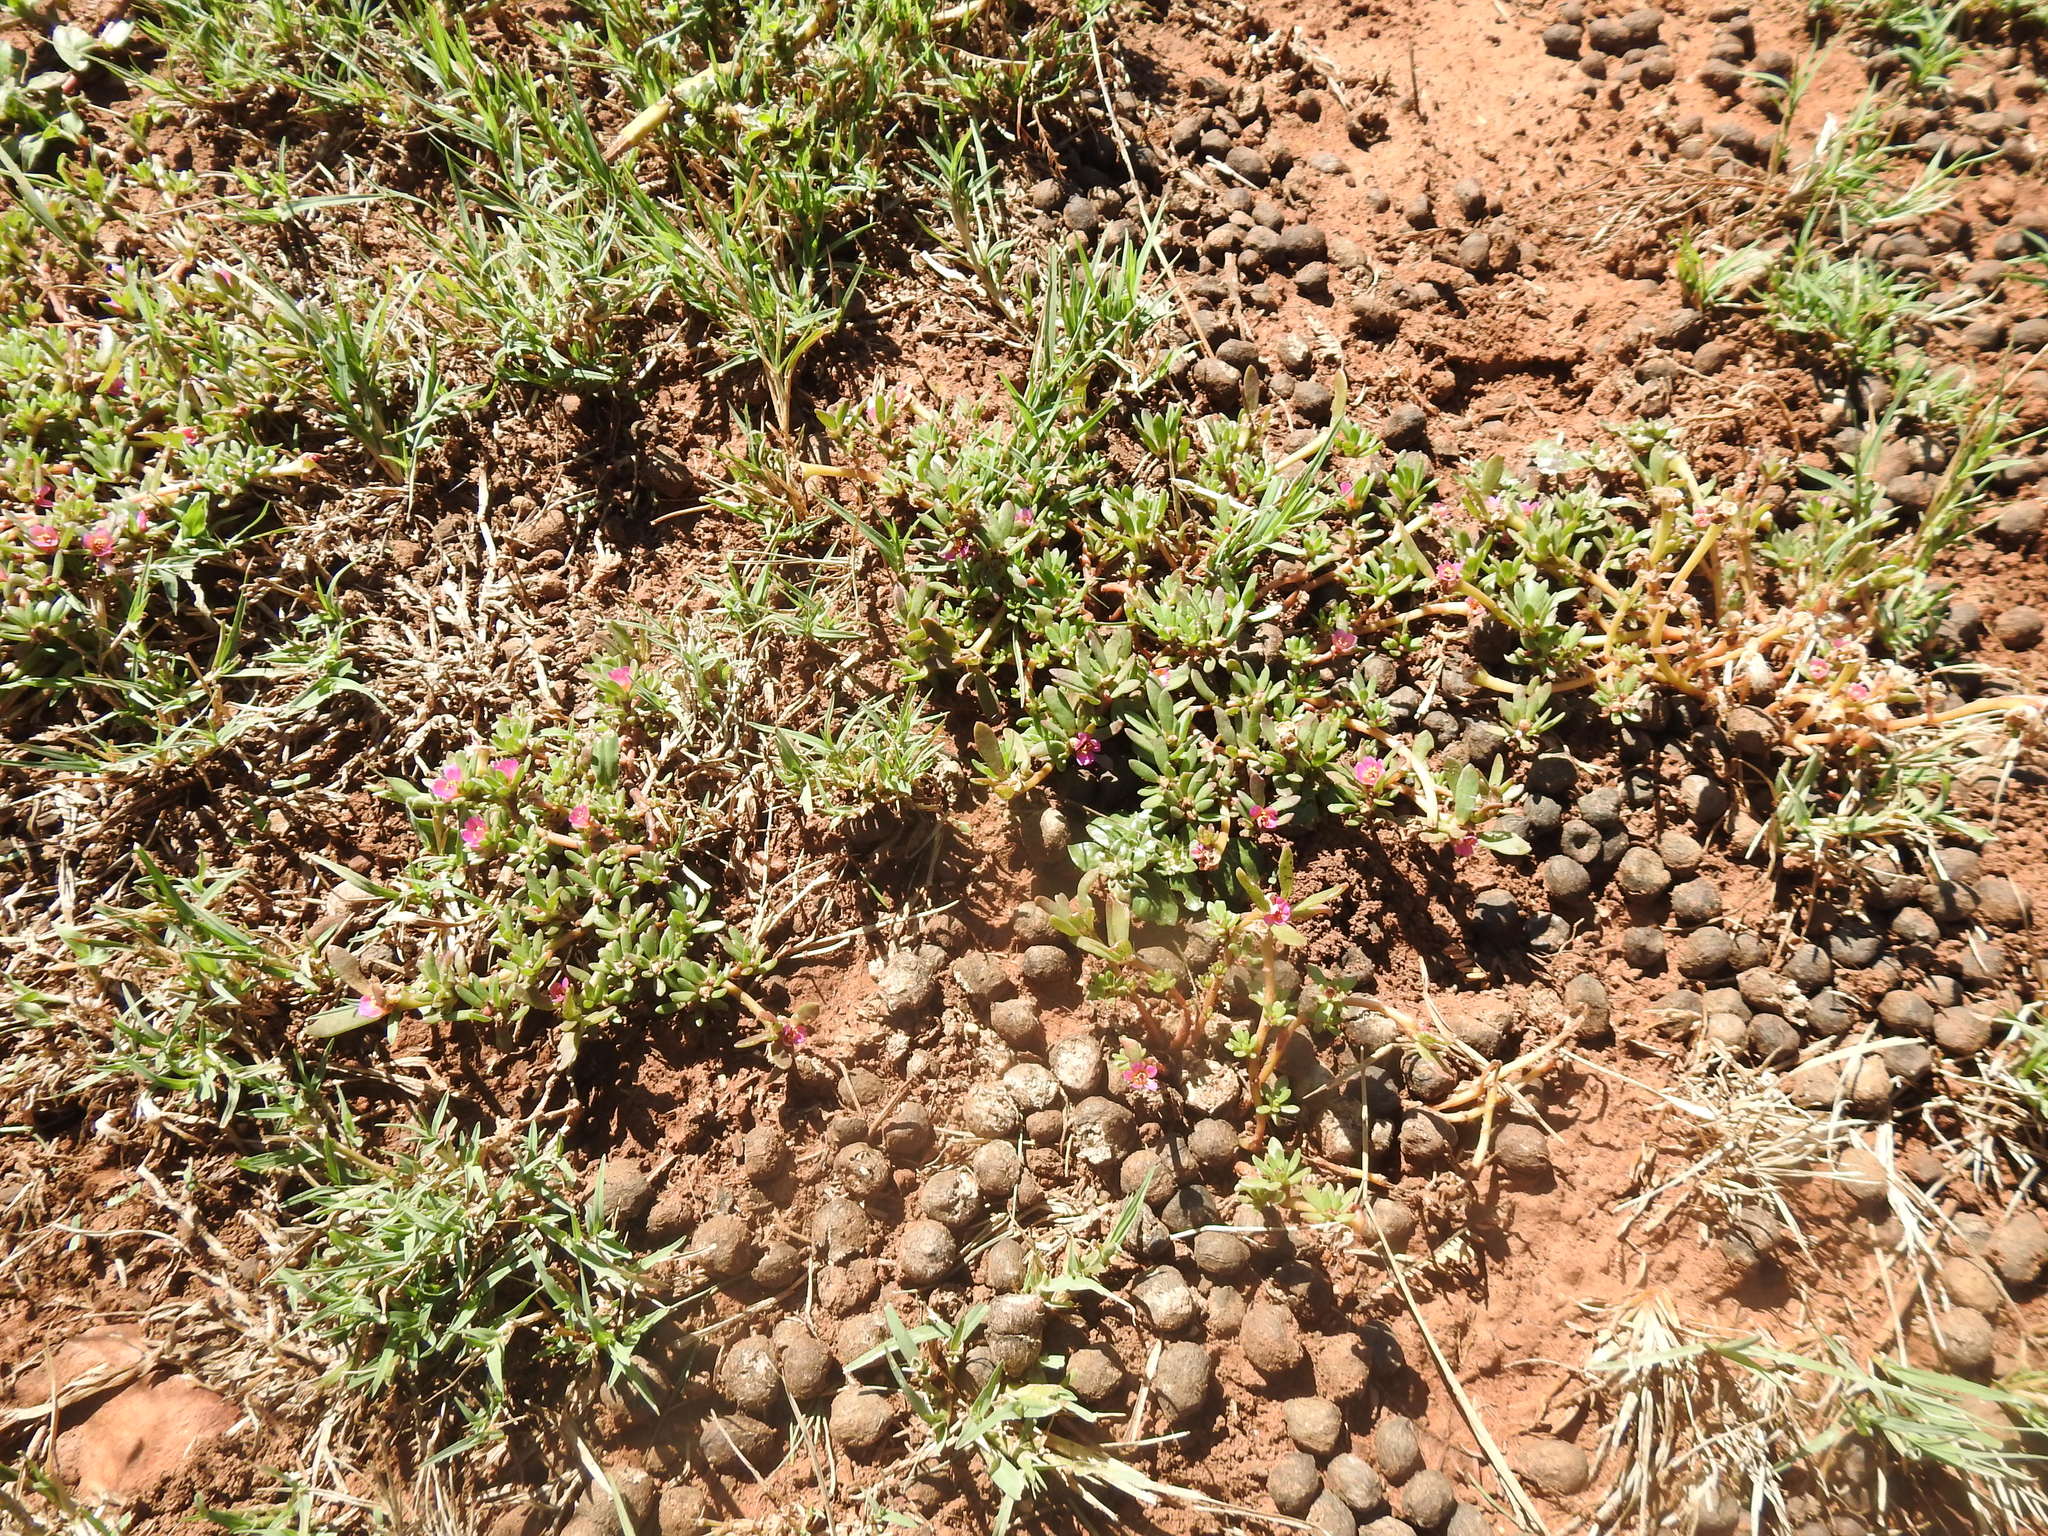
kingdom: Plantae
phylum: Tracheophyta
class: Magnoliopsida
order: Caryophyllales
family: Portulacaceae
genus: Portulaca
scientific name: Portulaca amilis
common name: Paraguayan purslane
